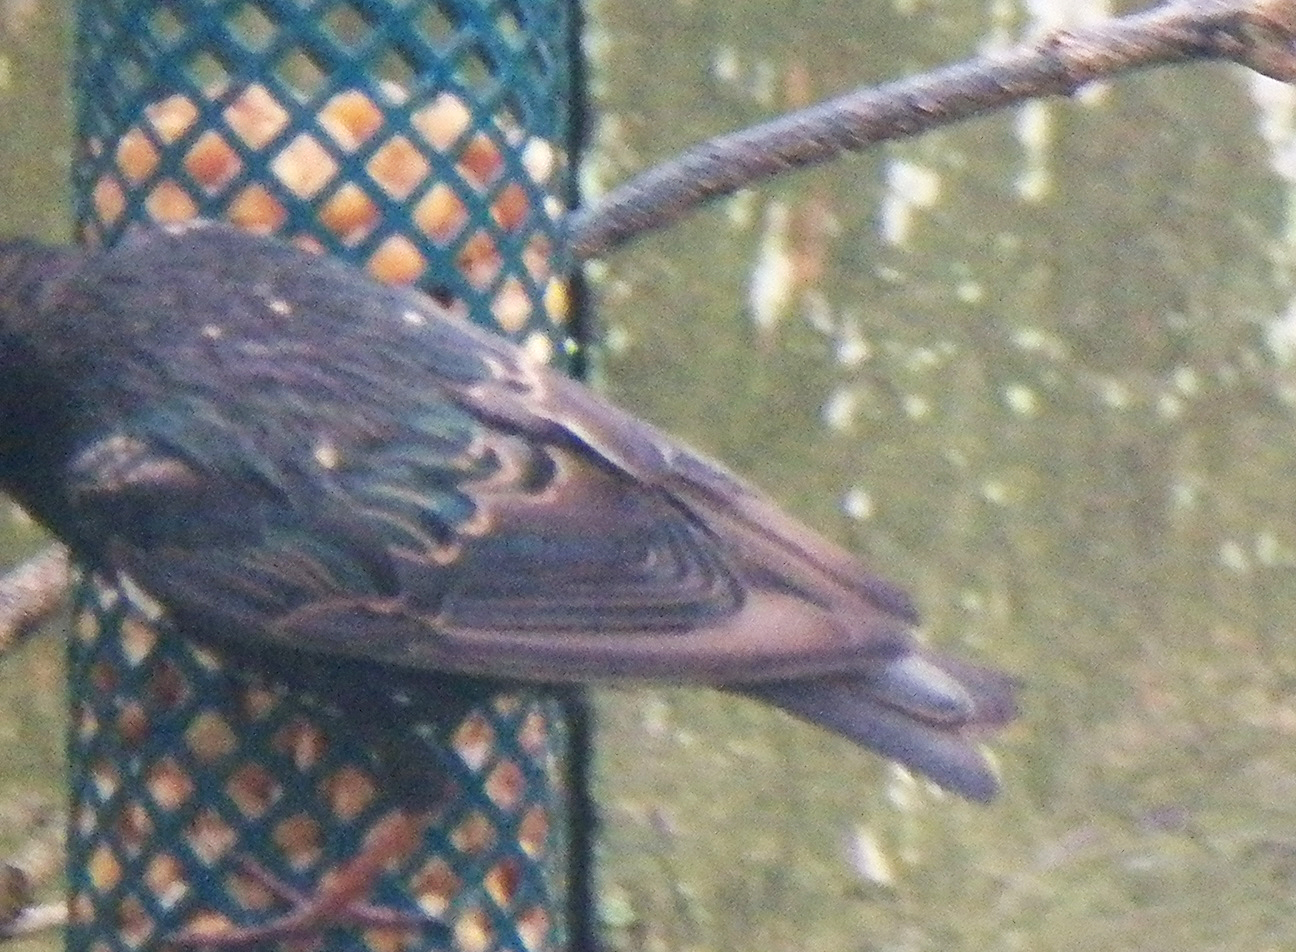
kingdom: Animalia
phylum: Chordata
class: Aves
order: Passeriformes
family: Sturnidae
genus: Sturnus
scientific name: Sturnus vulgaris
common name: Common starling
